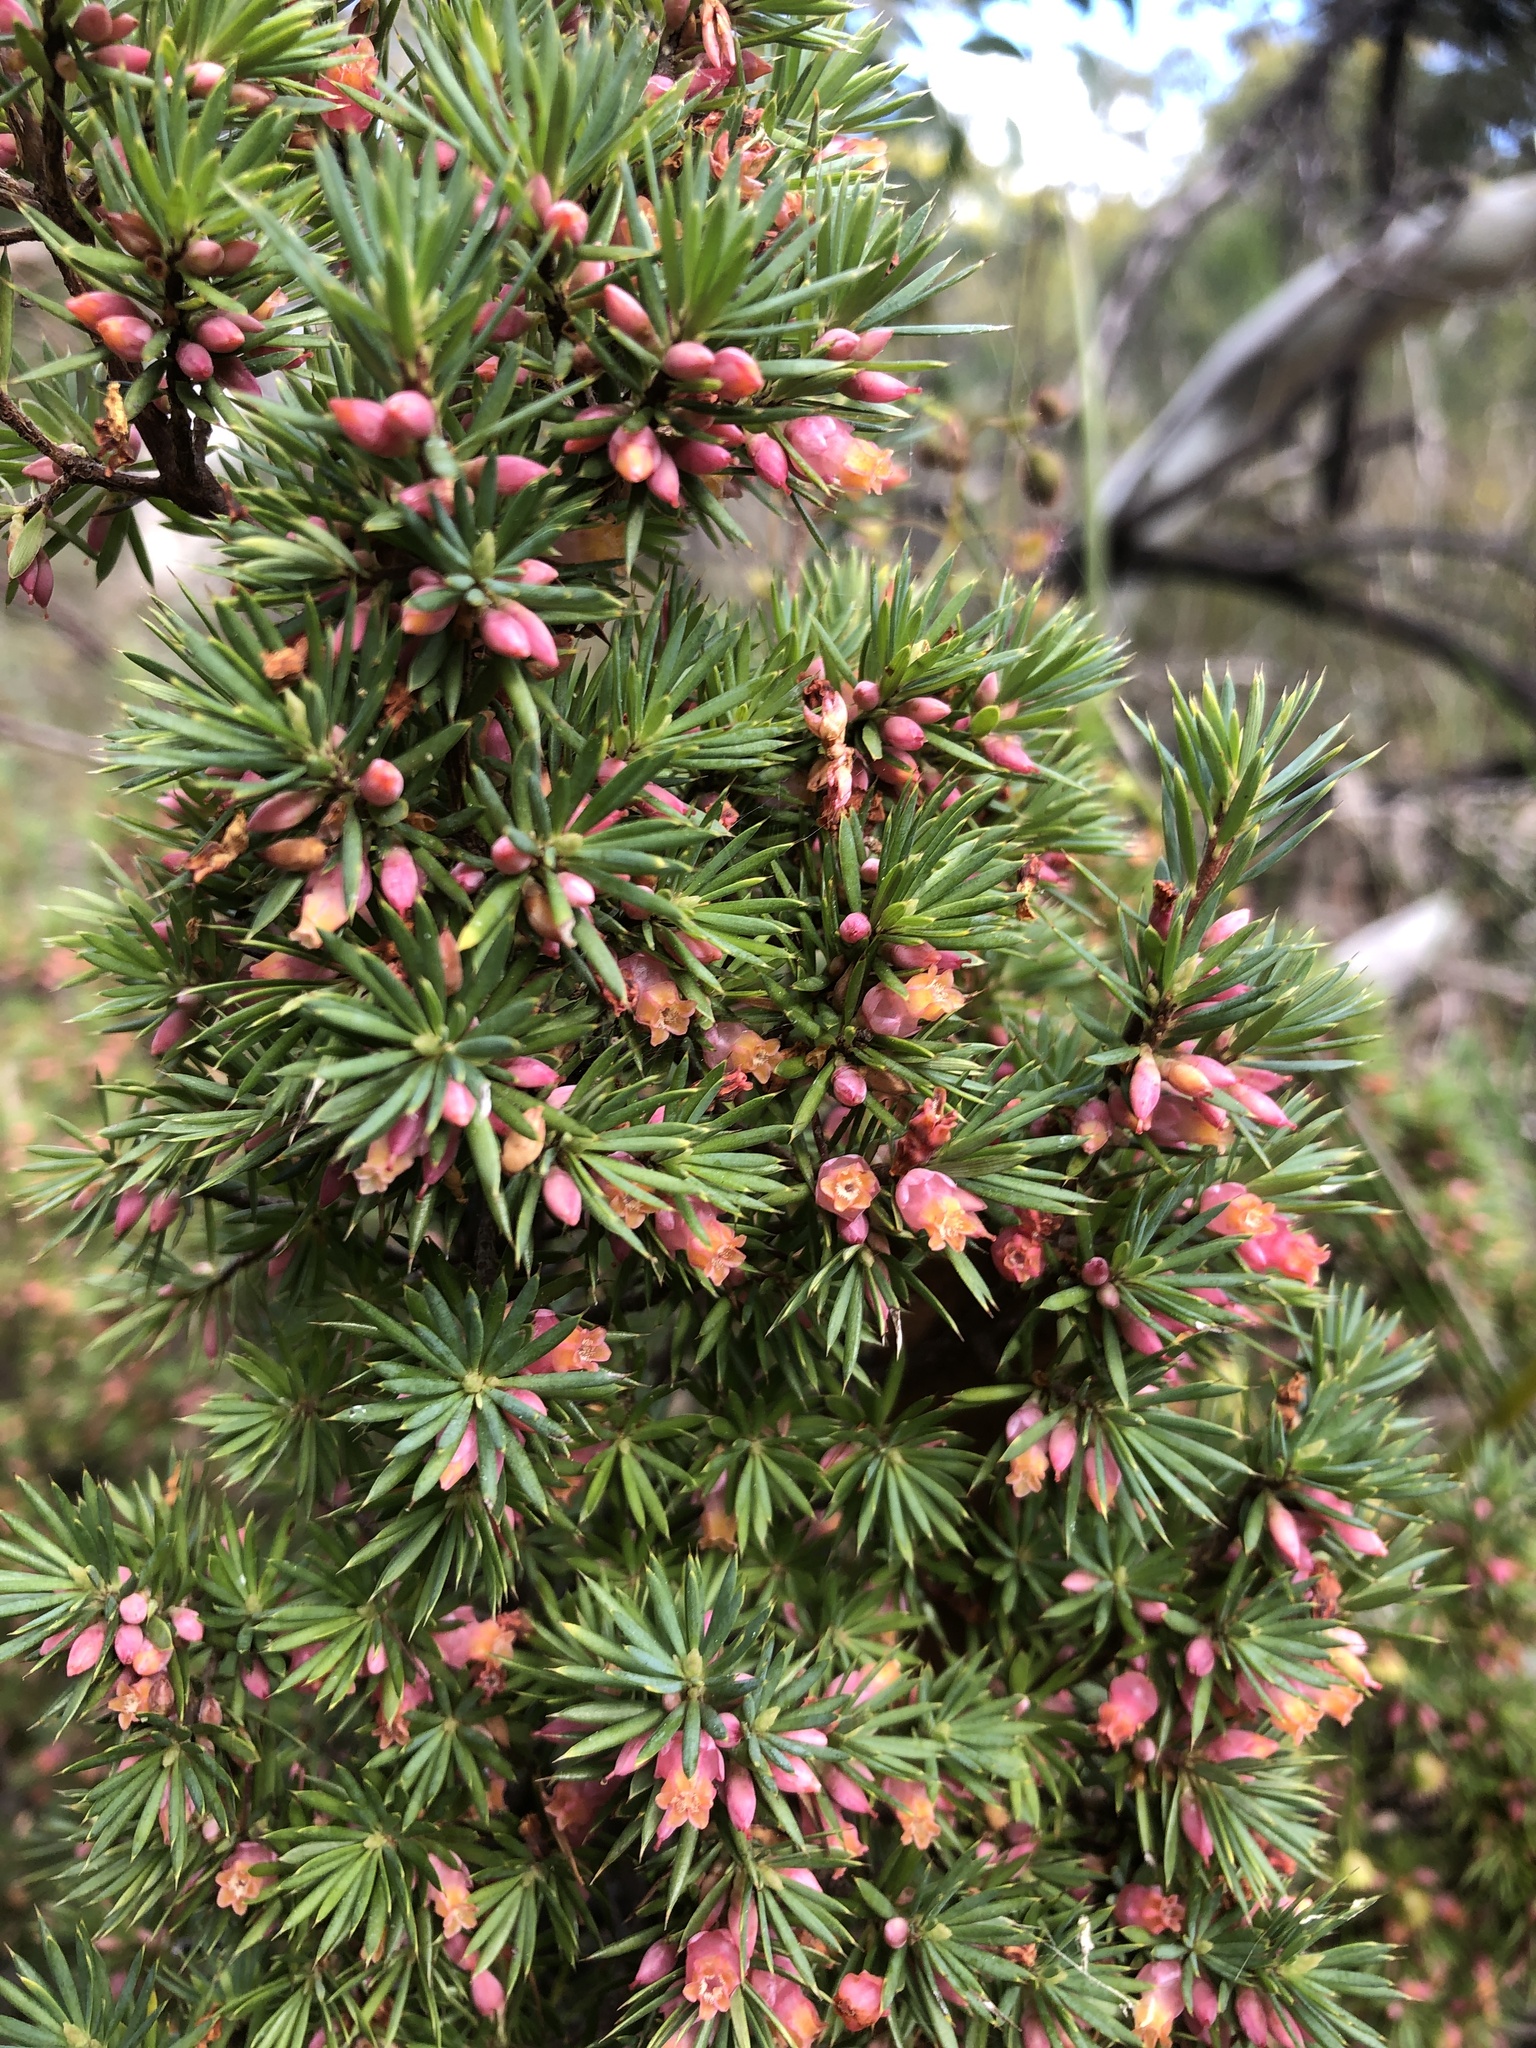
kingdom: Plantae
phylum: Tracheophyta
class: Magnoliopsida
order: Ericales
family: Ericaceae
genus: Brachyloma
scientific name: Brachyloma ericoides
